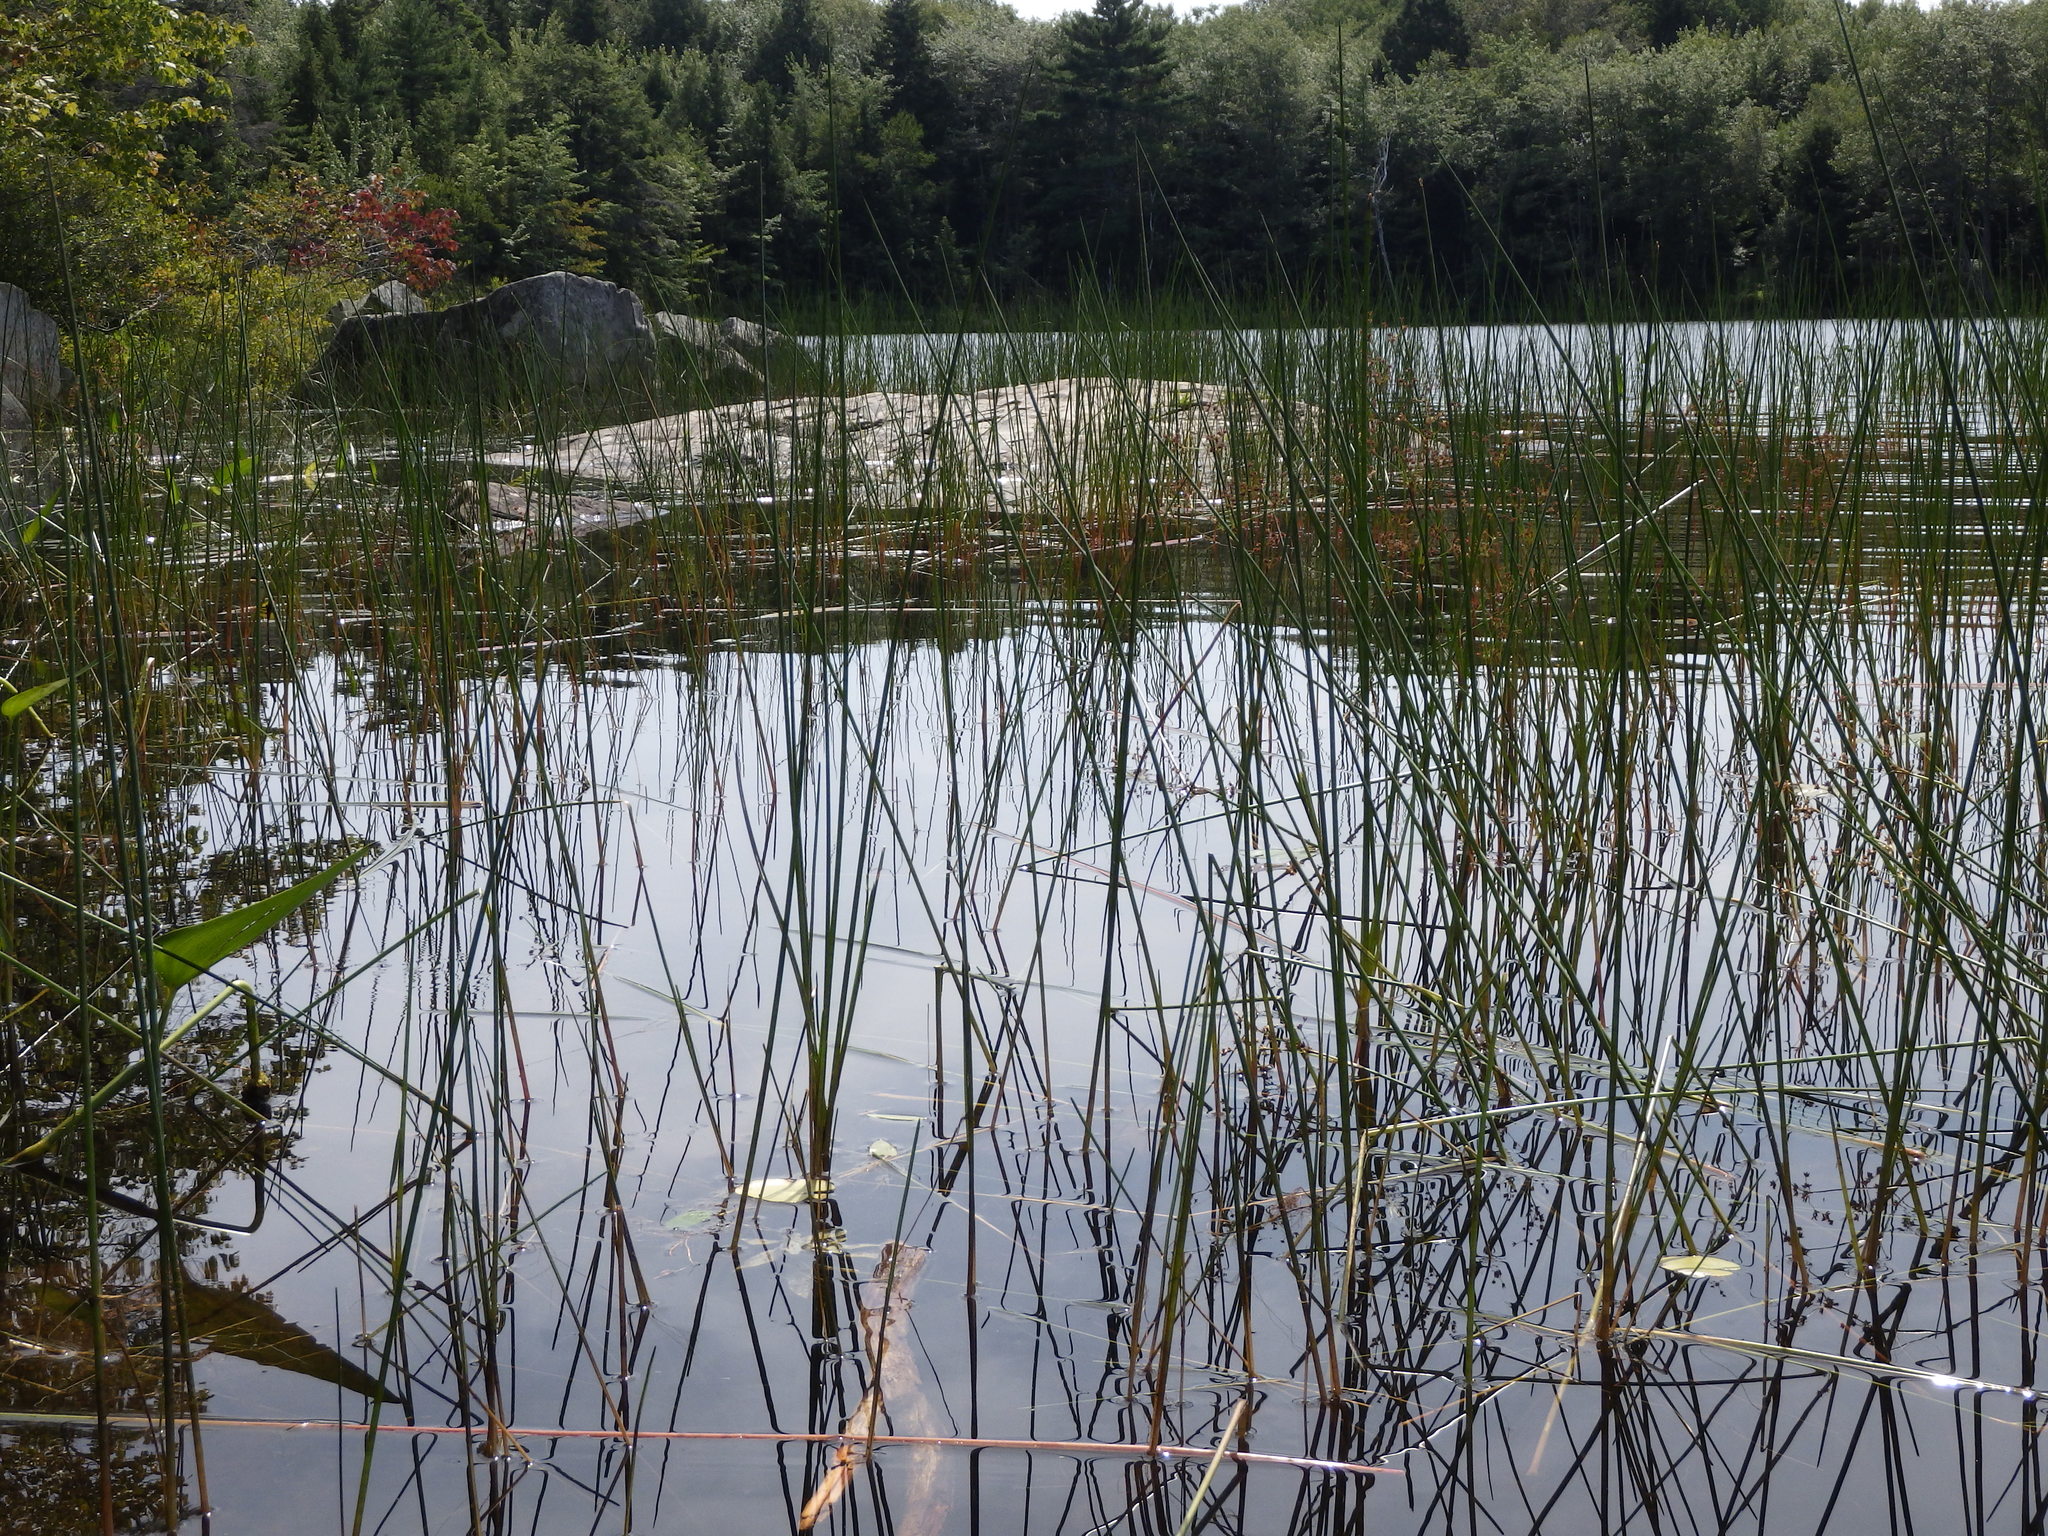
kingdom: Plantae
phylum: Tracheophyta
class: Liliopsida
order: Poales
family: Juncaceae
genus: Juncus
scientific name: Juncus militaris
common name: Bayonet rush
